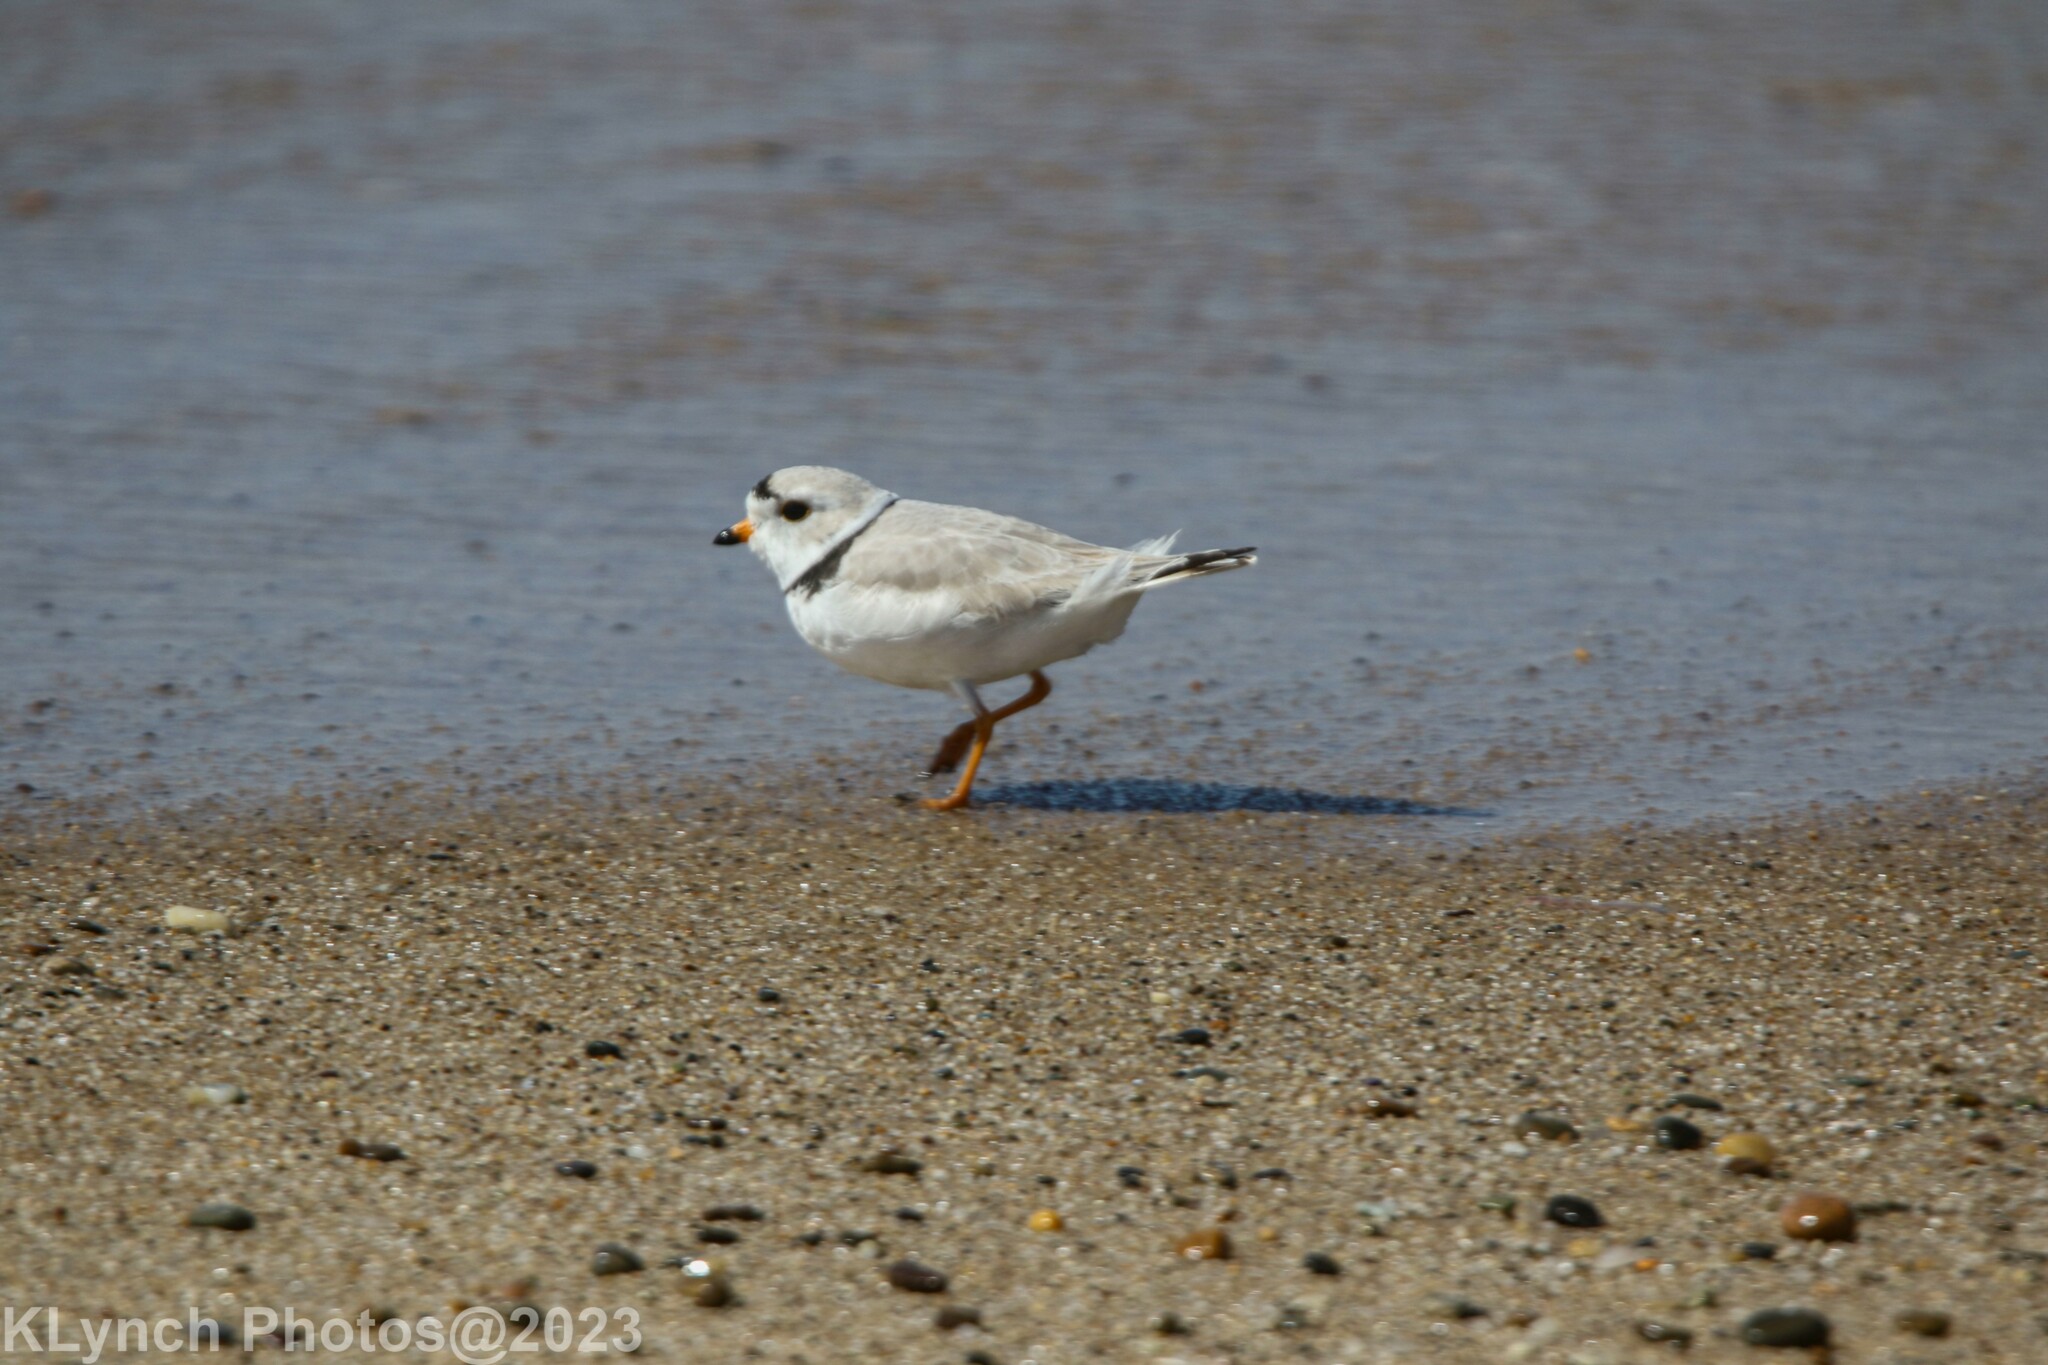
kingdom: Animalia
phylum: Chordata
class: Aves
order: Charadriiformes
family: Charadriidae
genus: Charadrius
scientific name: Charadrius melodus
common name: Piping plover
